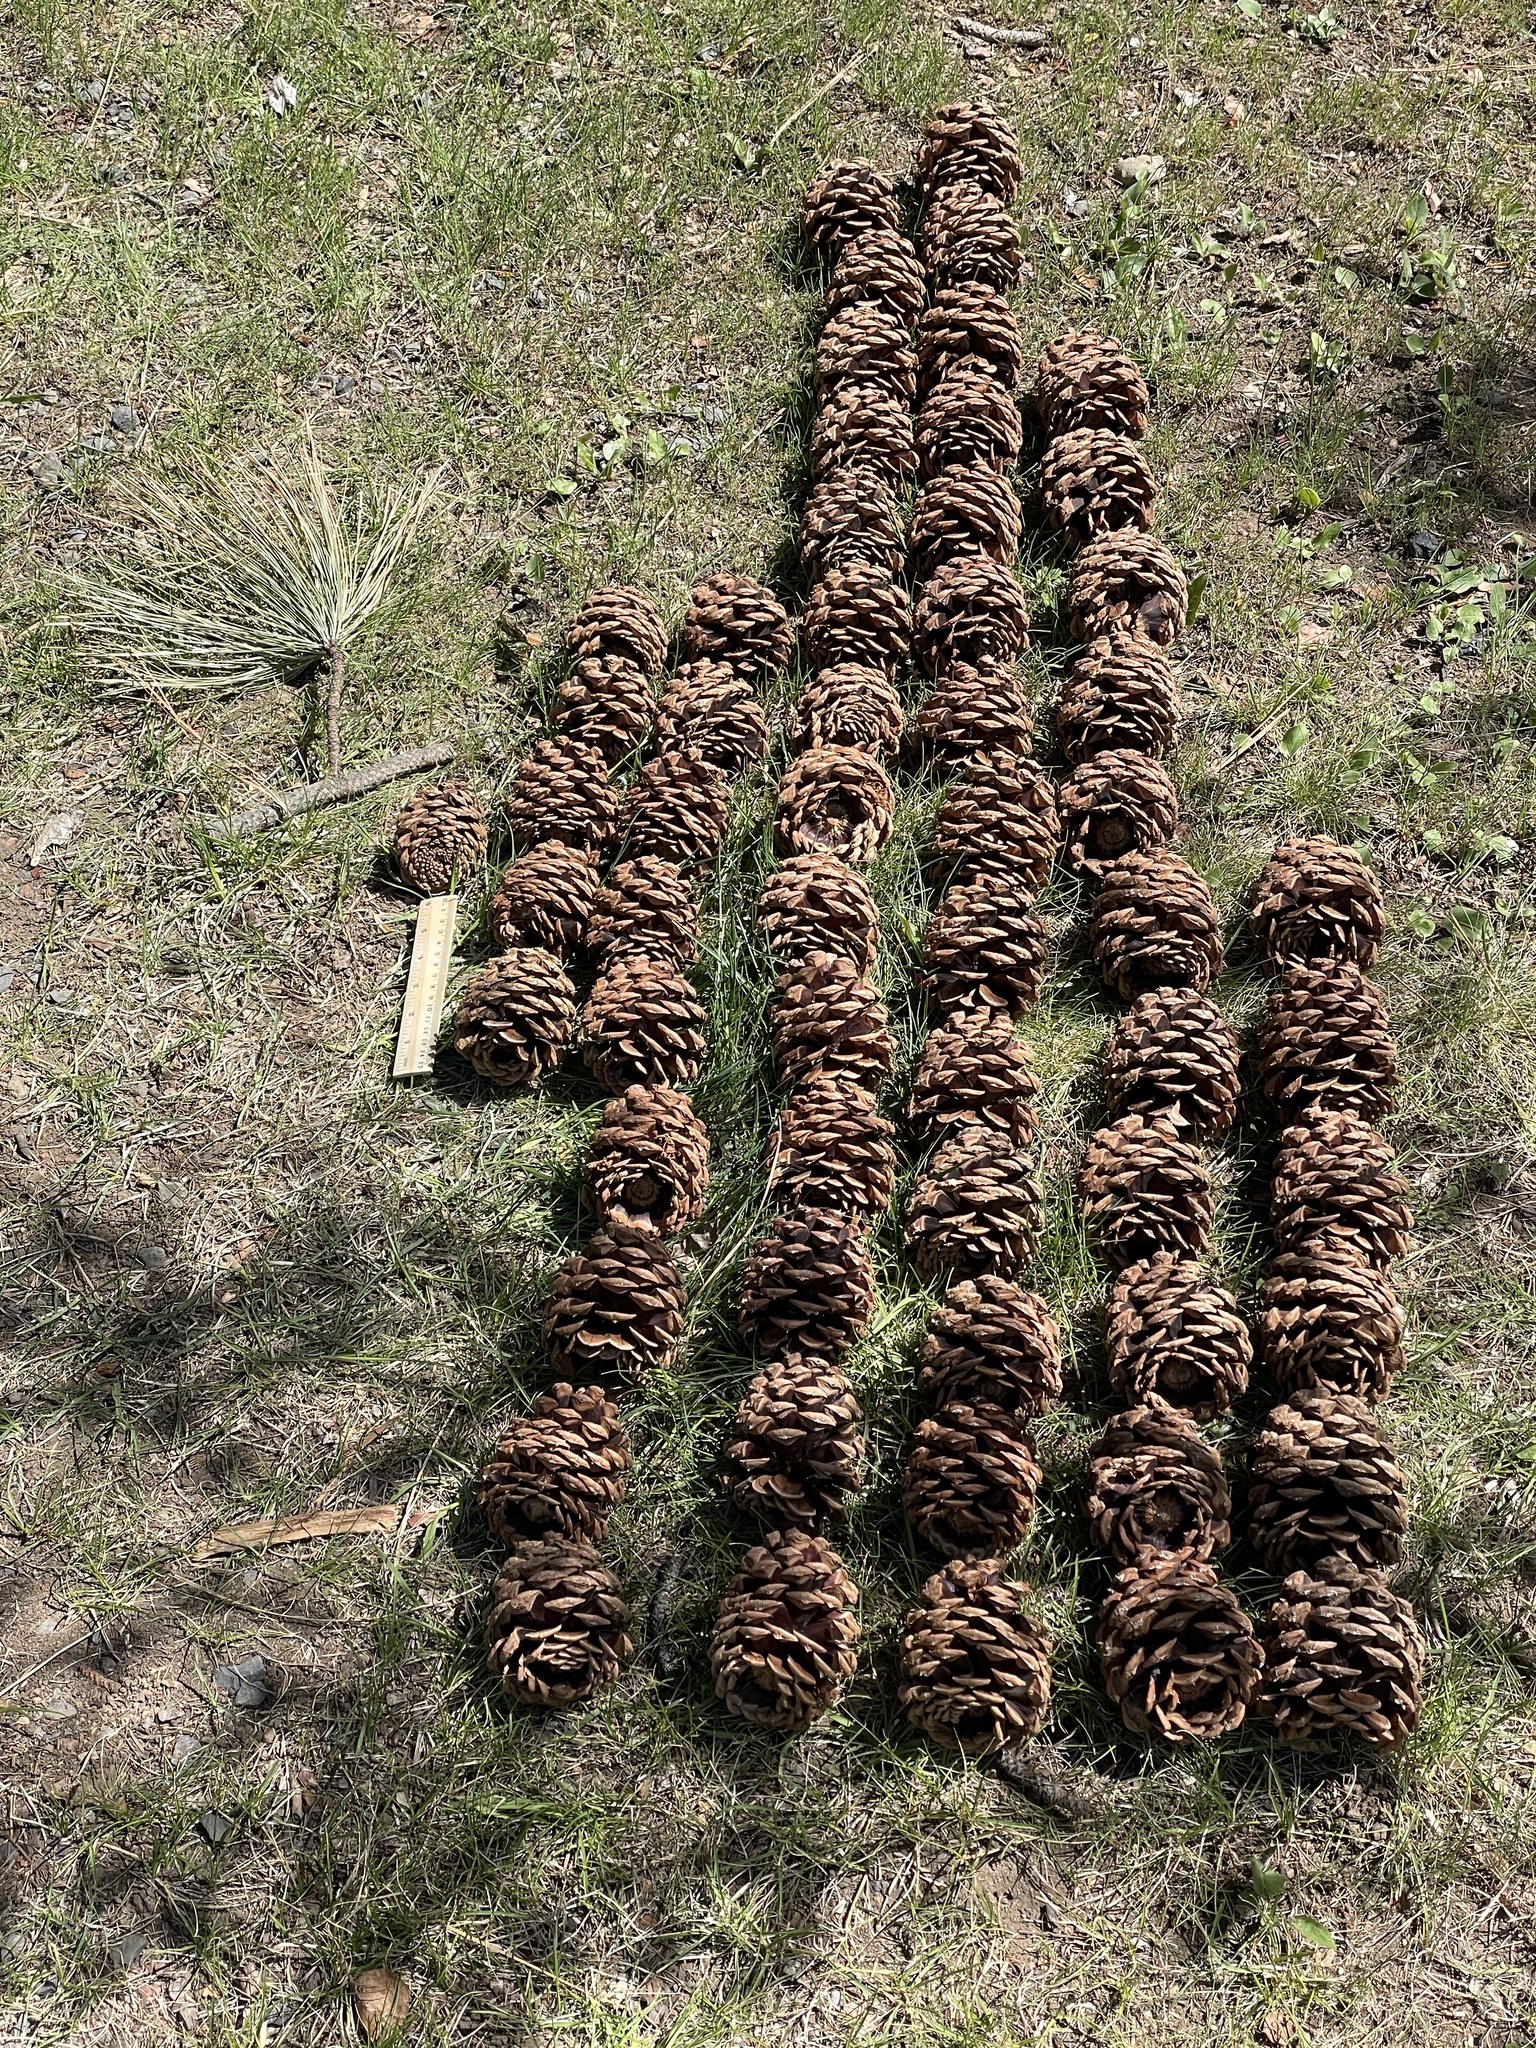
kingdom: Plantae
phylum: Tracheophyta
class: Pinopsida
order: Pinales
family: Pinaceae
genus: Pinus
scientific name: Pinus ponderosa
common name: Western yellow-pine
